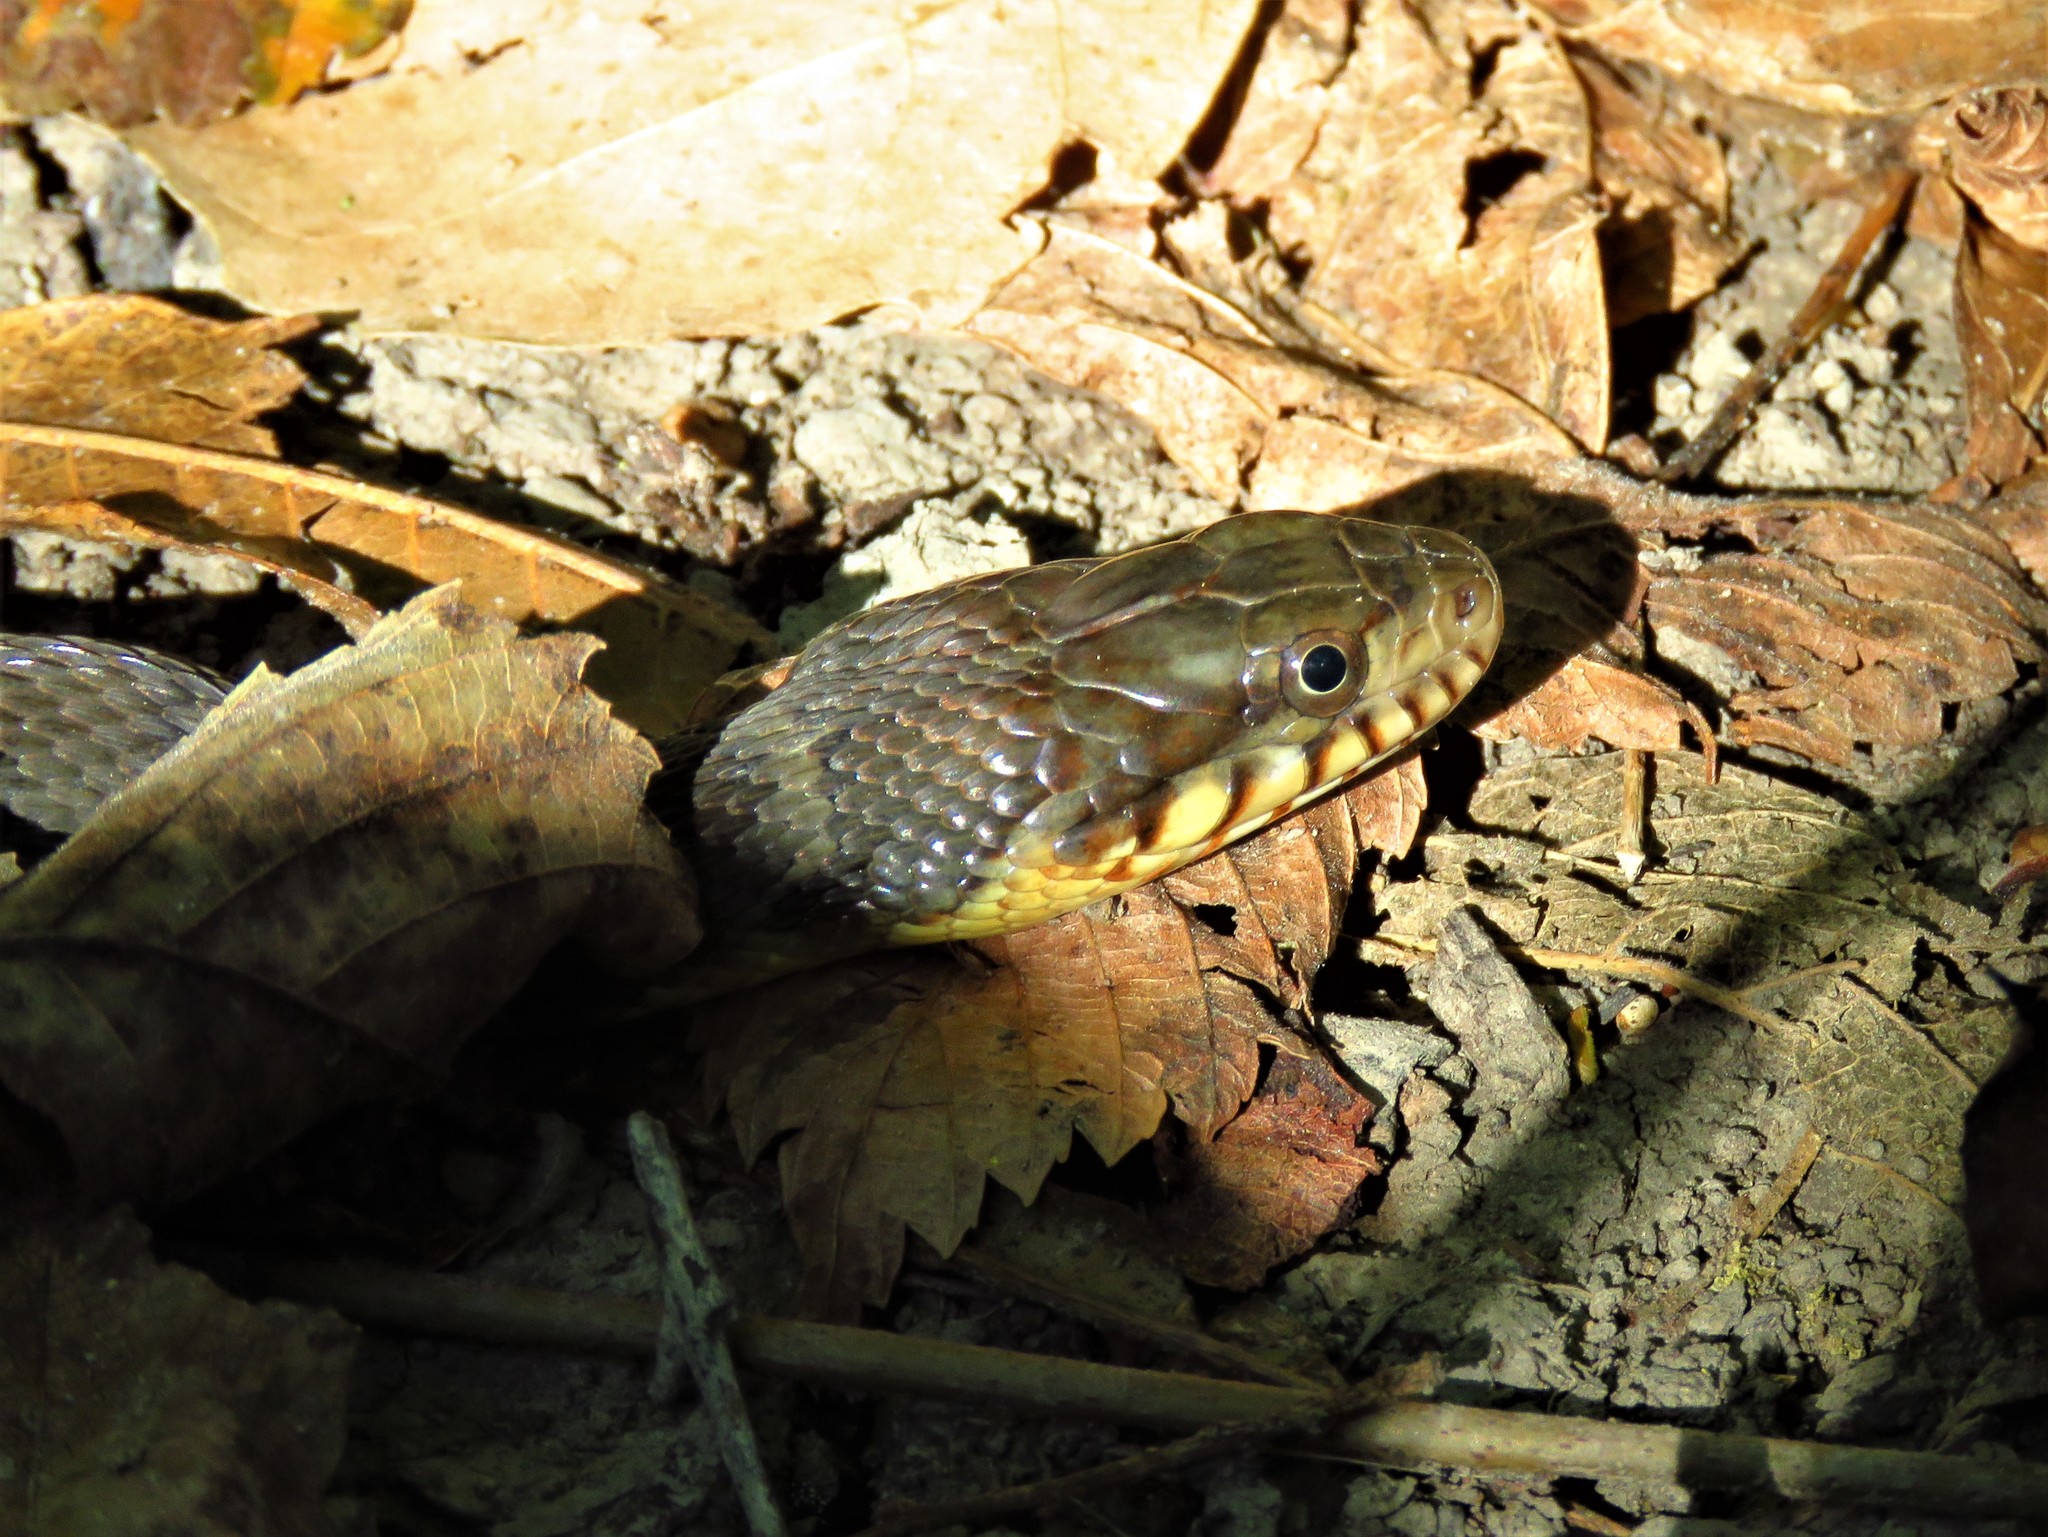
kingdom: Animalia
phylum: Chordata
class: Squamata
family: Colubridae
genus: Nerodia
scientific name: Nerodia erythrogaster
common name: Plainbelly water snake
